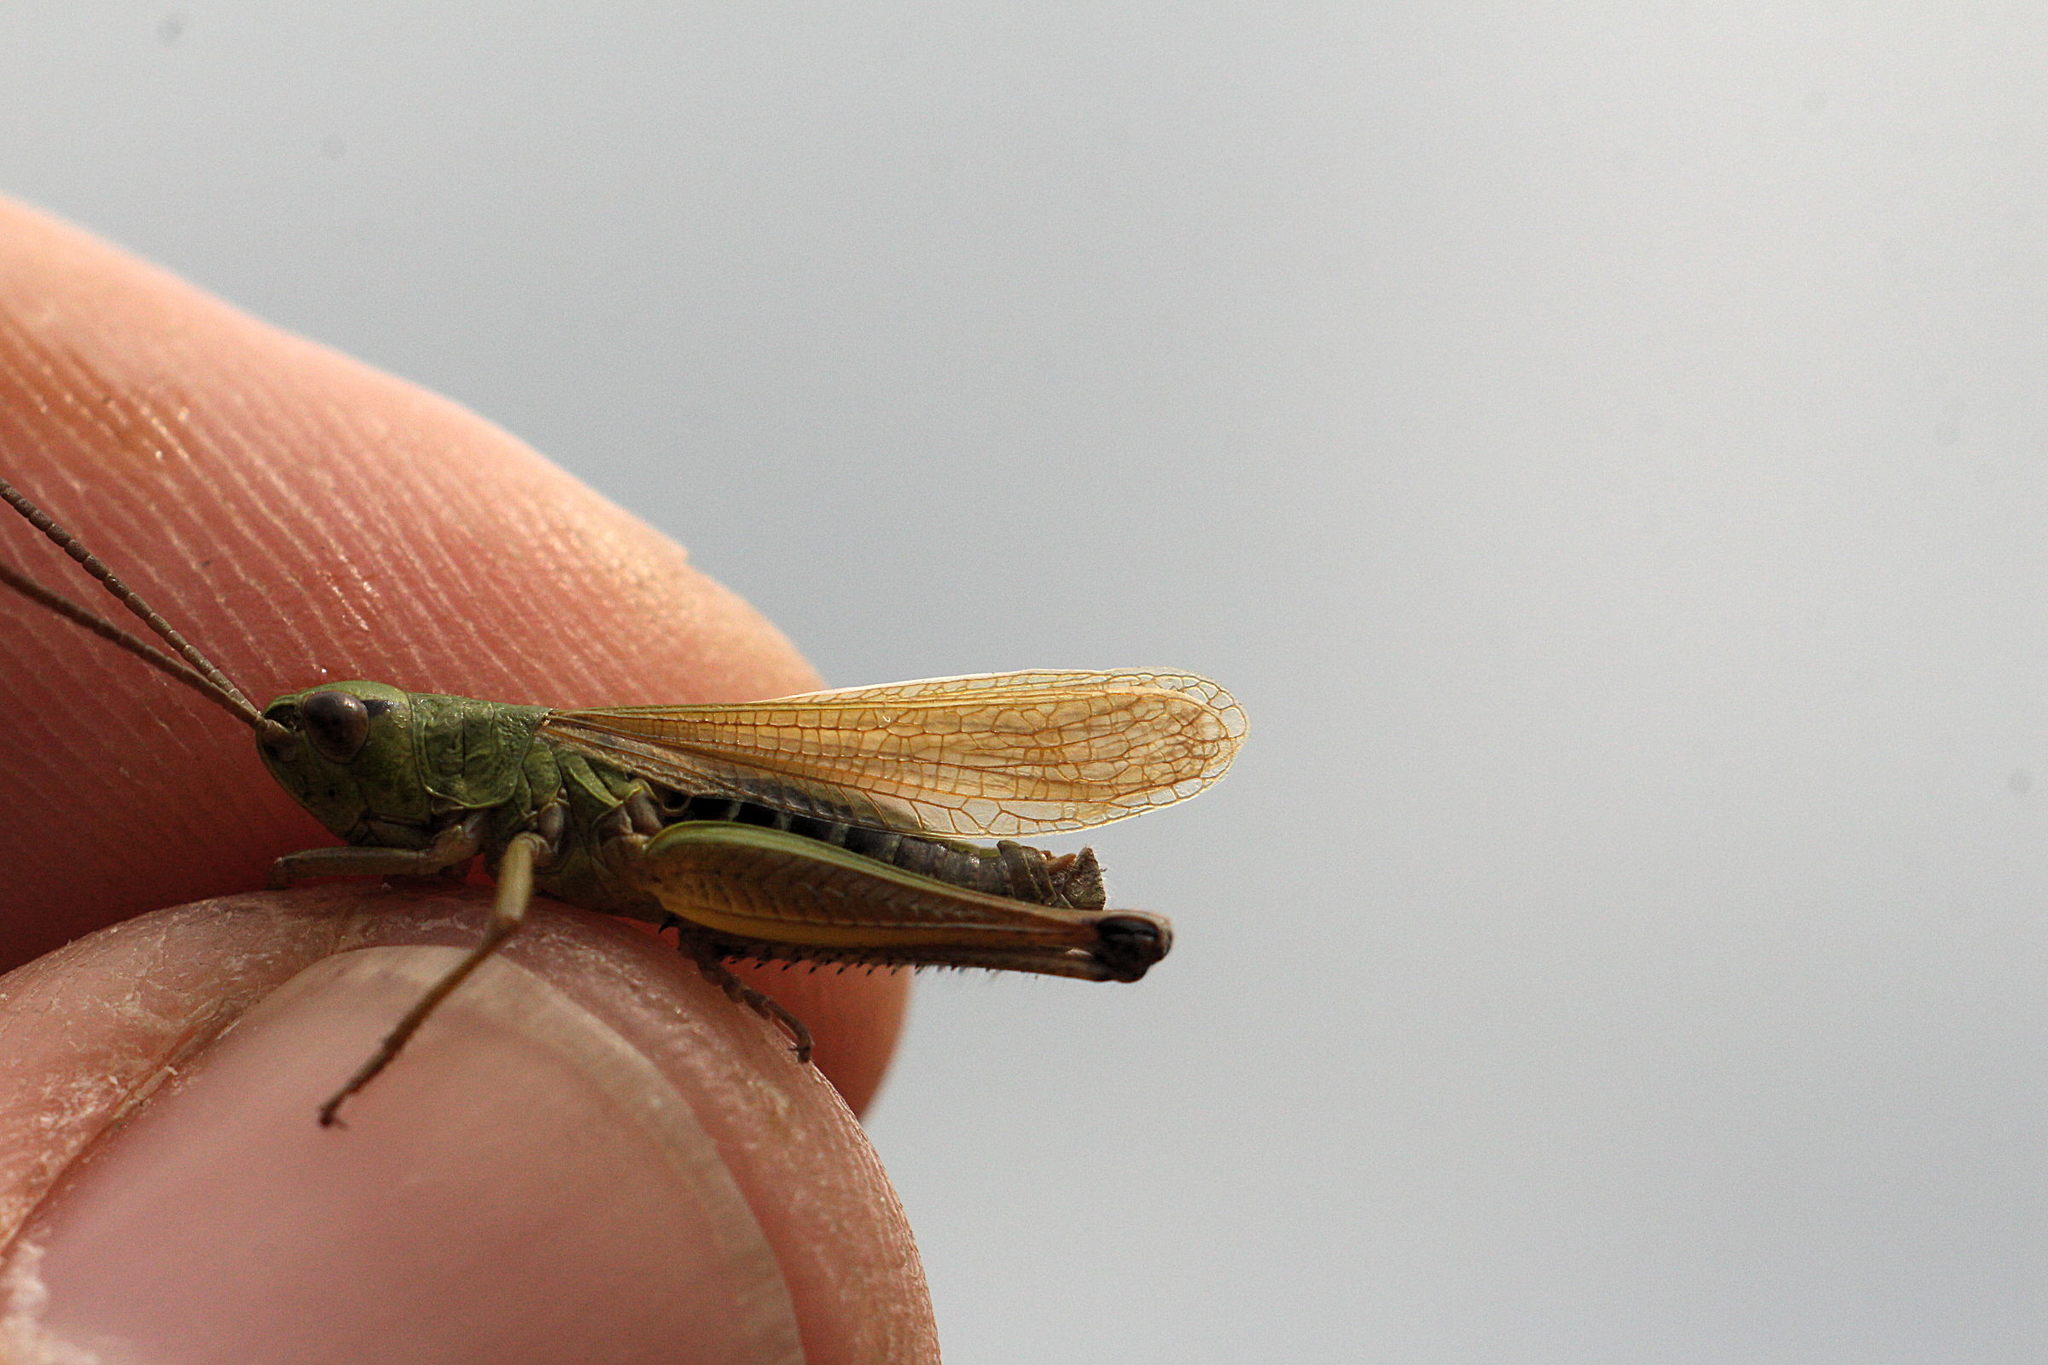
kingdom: Animalia
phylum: Arthropoda
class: Insecta
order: Orthoptera
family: Acrididae
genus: Pseudochorthippus
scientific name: Pseudochorthippus parallelus
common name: Meadow grasshopper
